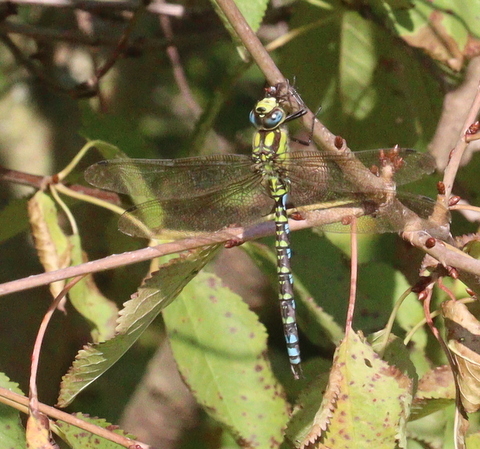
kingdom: Animalia
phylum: Arthropoda
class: Insecta
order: Odonata
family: Aeshnidae
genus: Aeshna
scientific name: Aeshna cyanea
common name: Southern hawker
